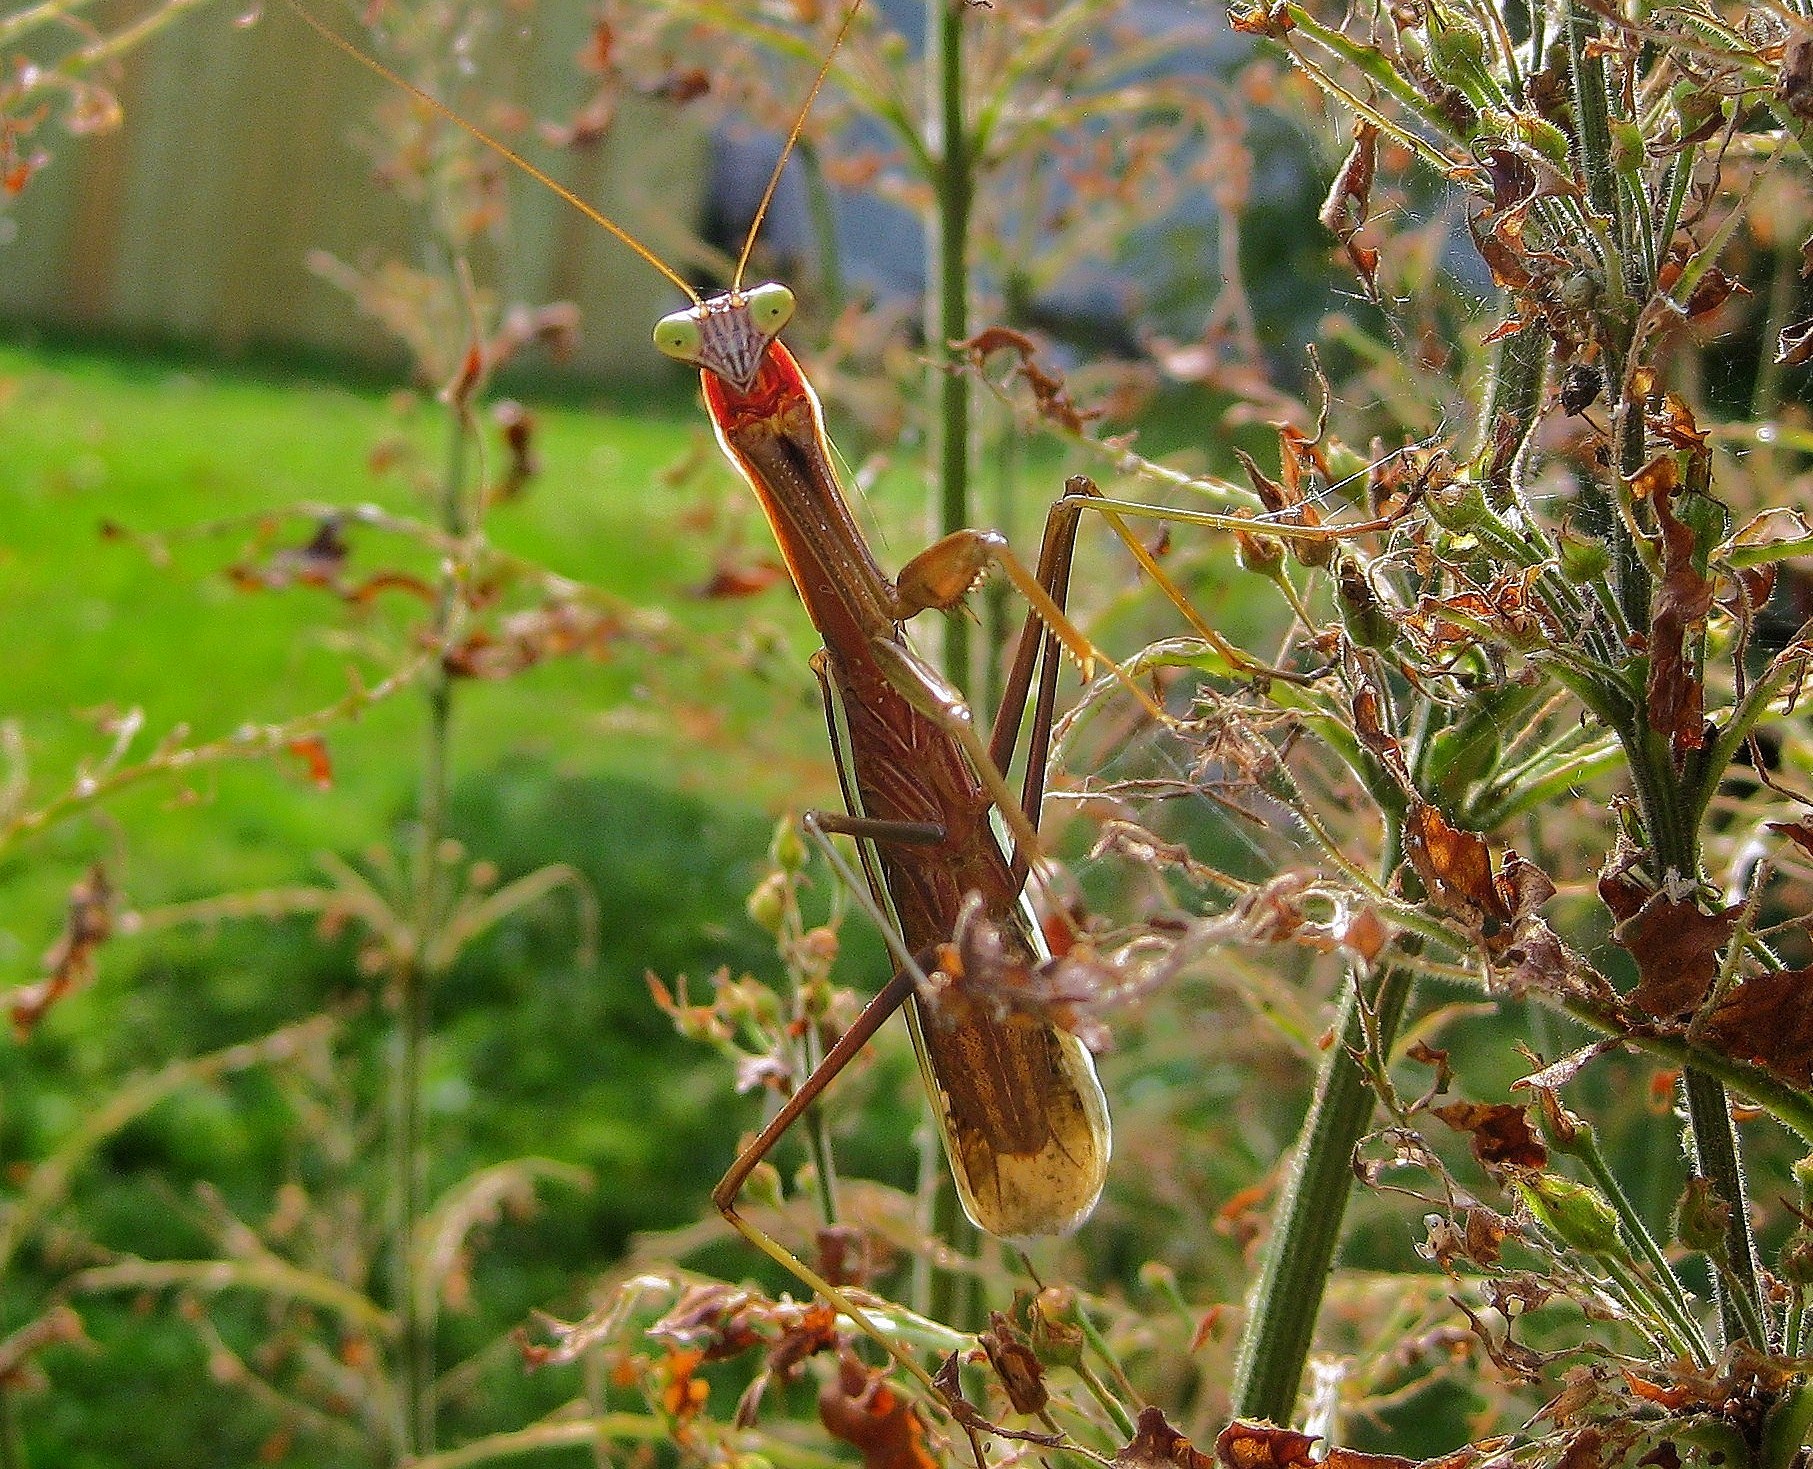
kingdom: Animalia
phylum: Arthropoda
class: Insecta
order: Mantodea
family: Mantidae
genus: Tenodera
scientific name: Tenodera sinensis
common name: Chinese mantis
